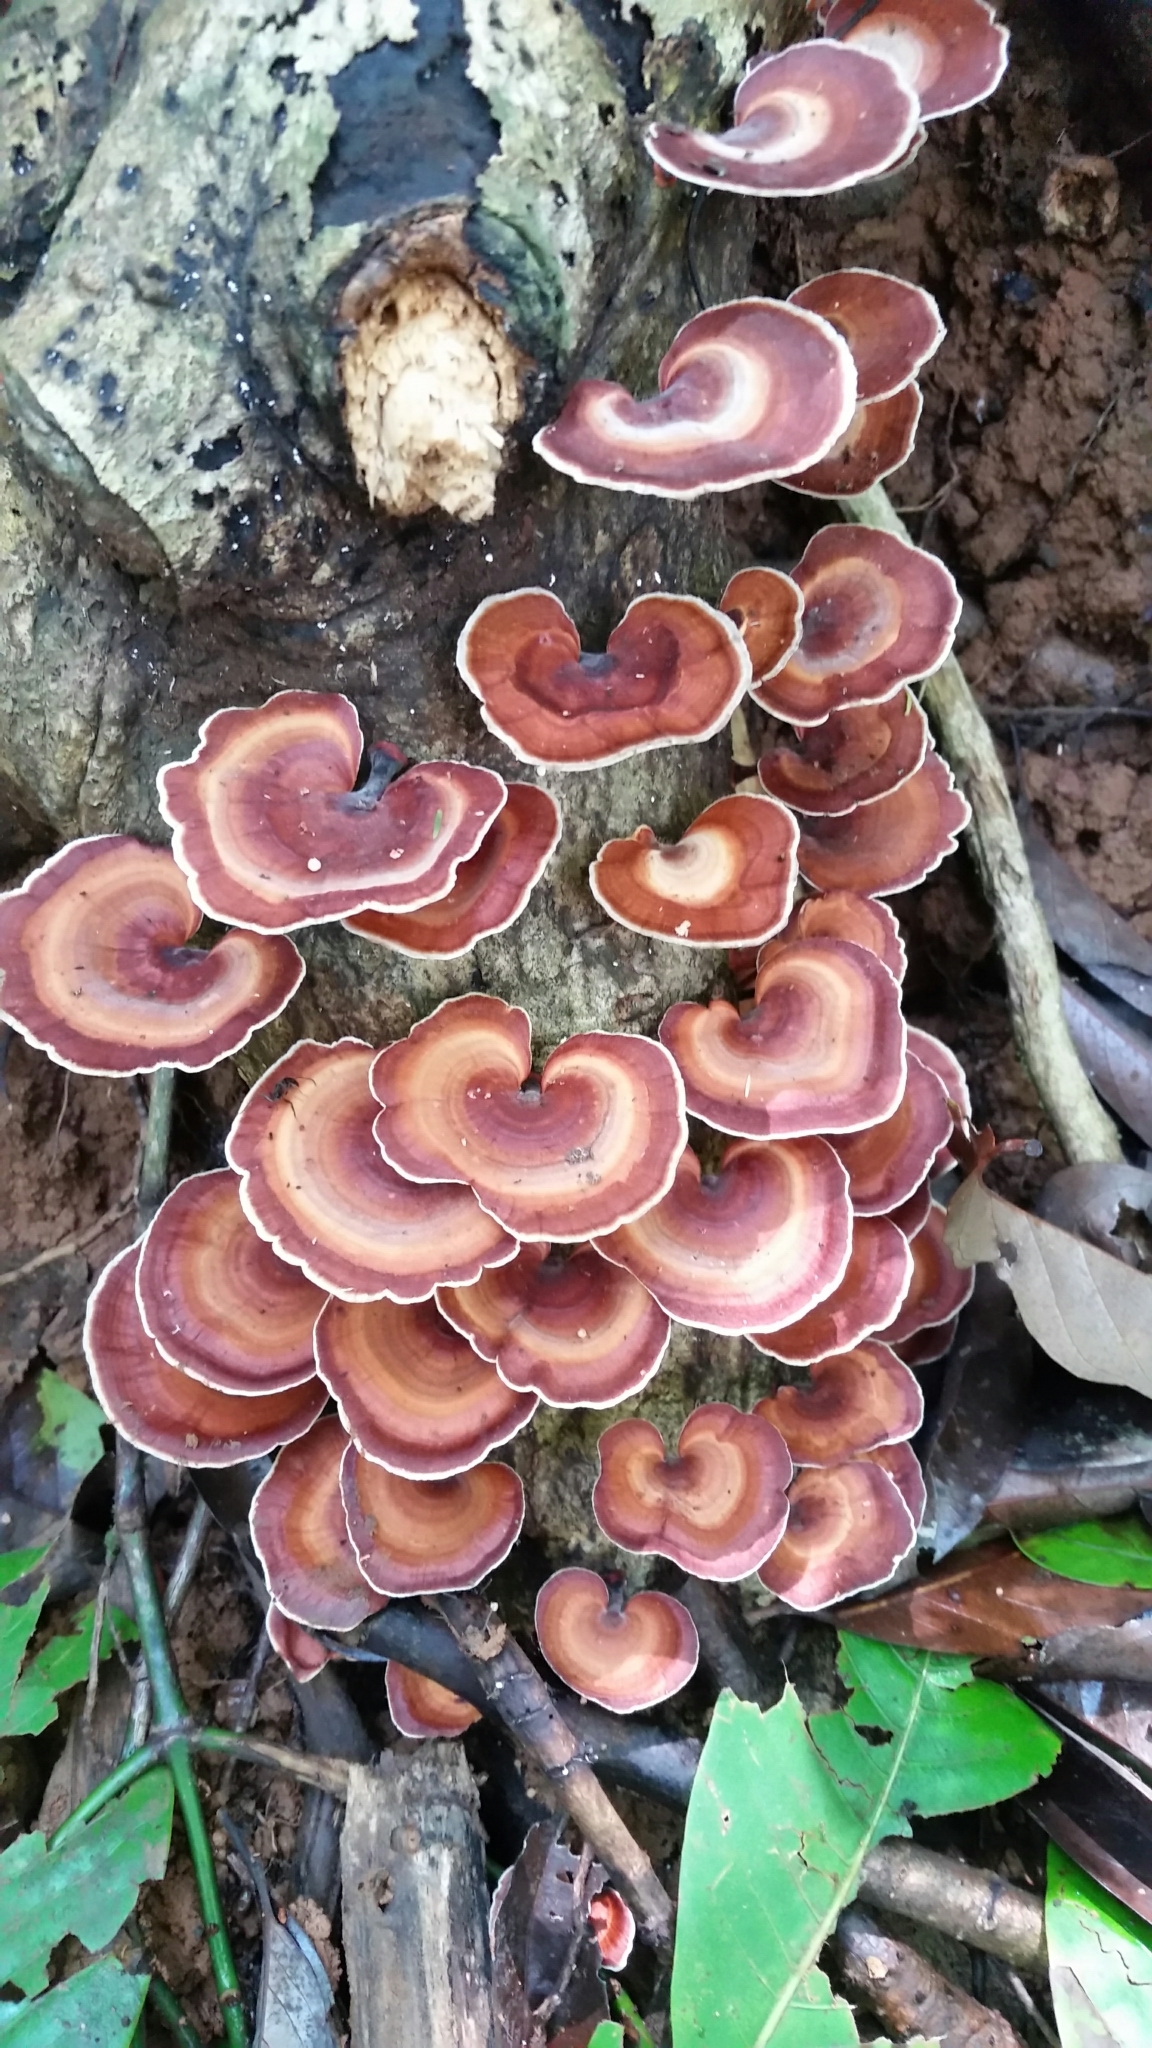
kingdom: Fungi
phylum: Basidiomycota
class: Agaricomycetes
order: Polyporales
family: Polyporaceae
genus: Microporus
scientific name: Microporus affinis
